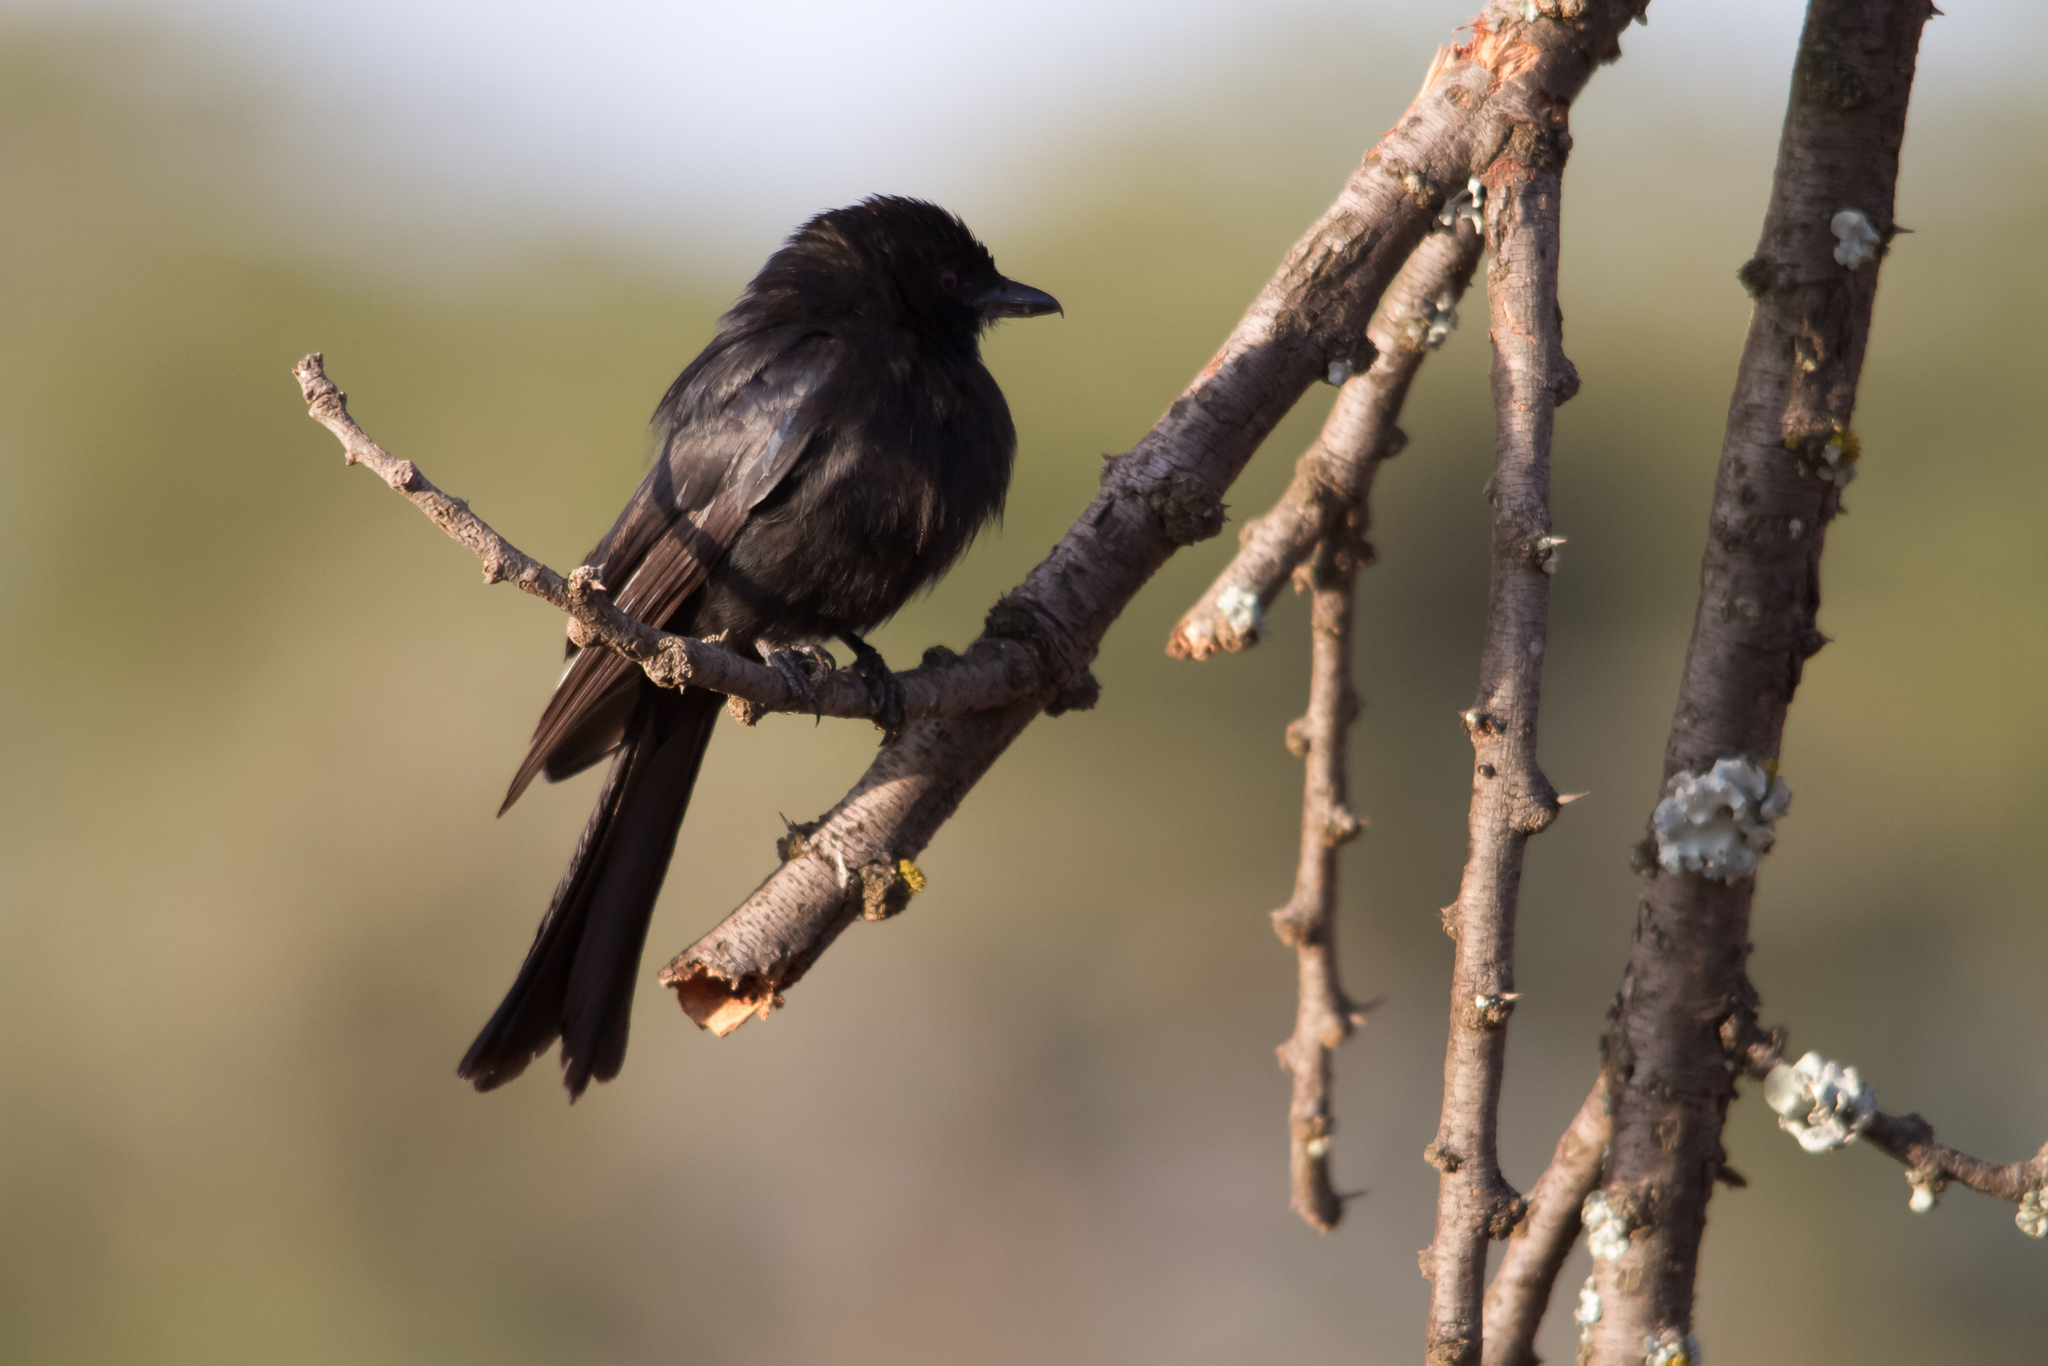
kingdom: Animalia
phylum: Chordata
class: Aves
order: Passeriformes
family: Dicruridae
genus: Dicrurus
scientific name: Dicrurus adsimilis
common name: Fork-tailed drongo
